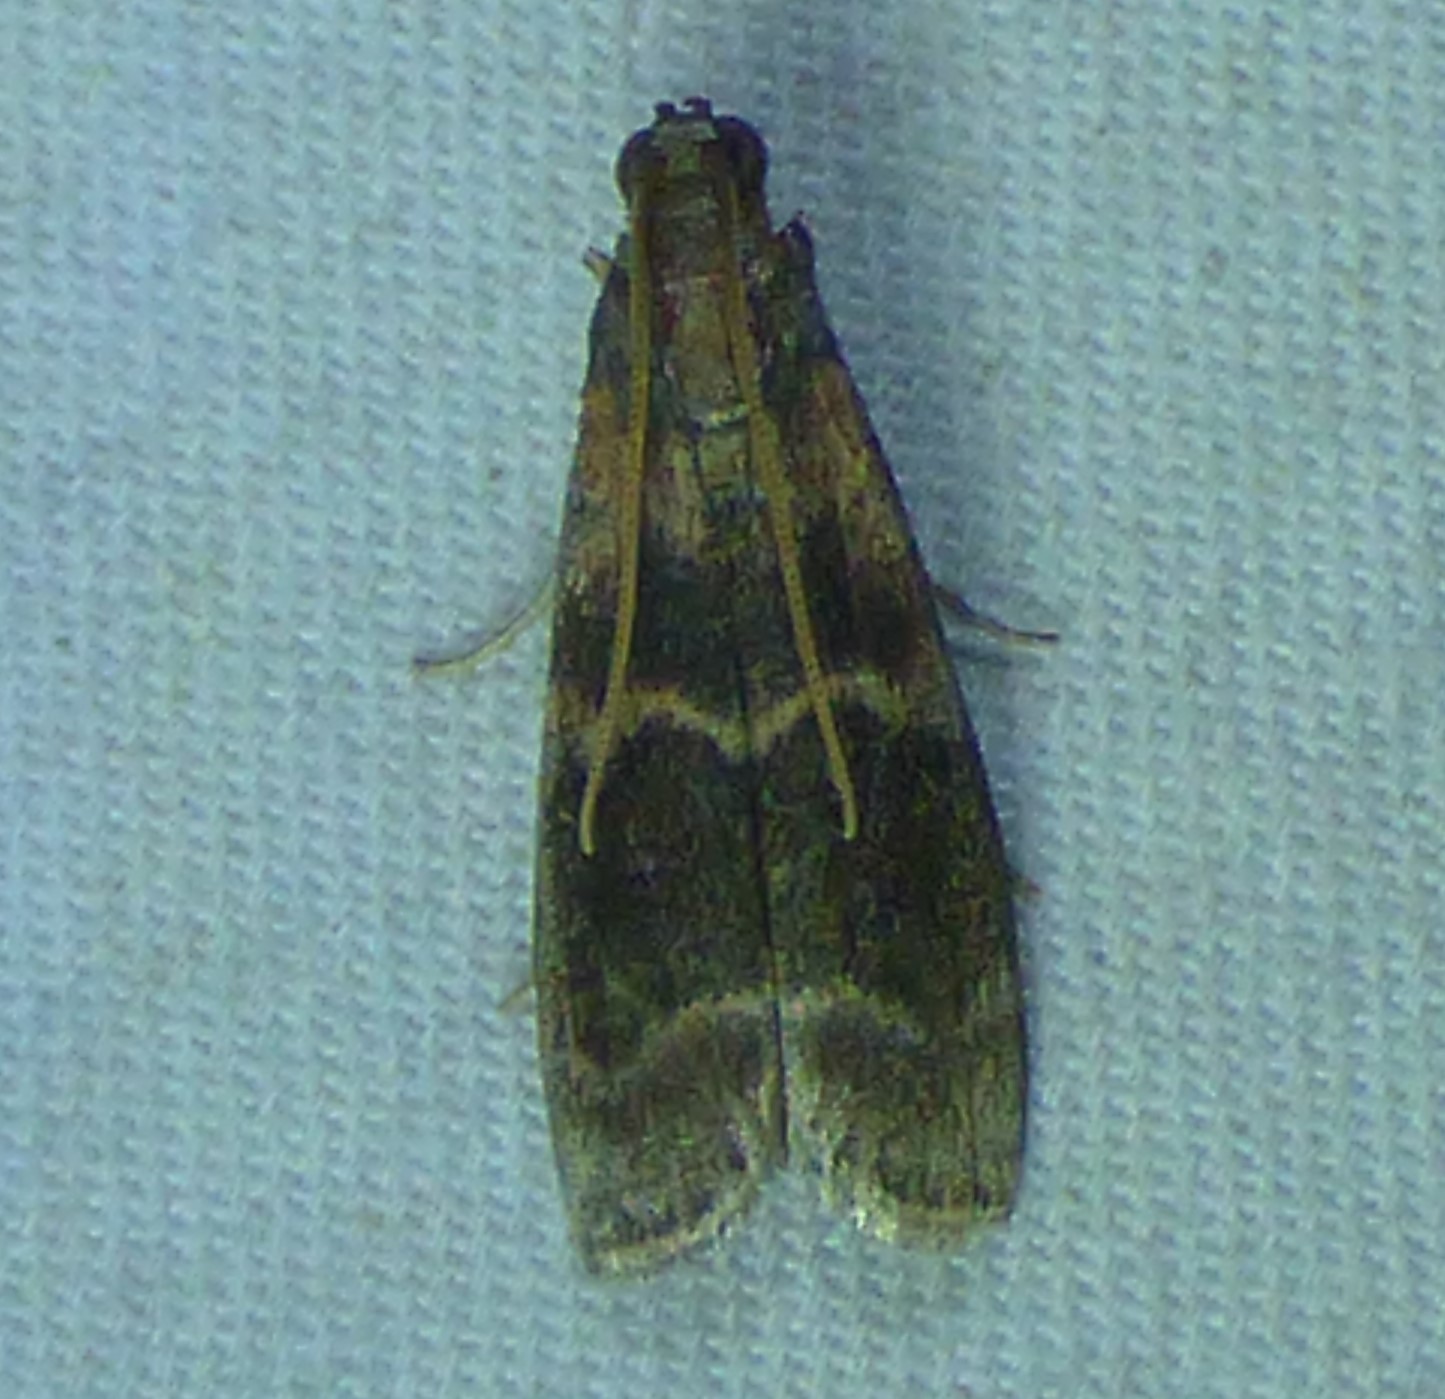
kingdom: Animalia
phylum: Arthropoda
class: Insecta
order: Lepidoptera
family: Pyralidae
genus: Euzophera
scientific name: Euzophera semifuneralis
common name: American plum borer moth
